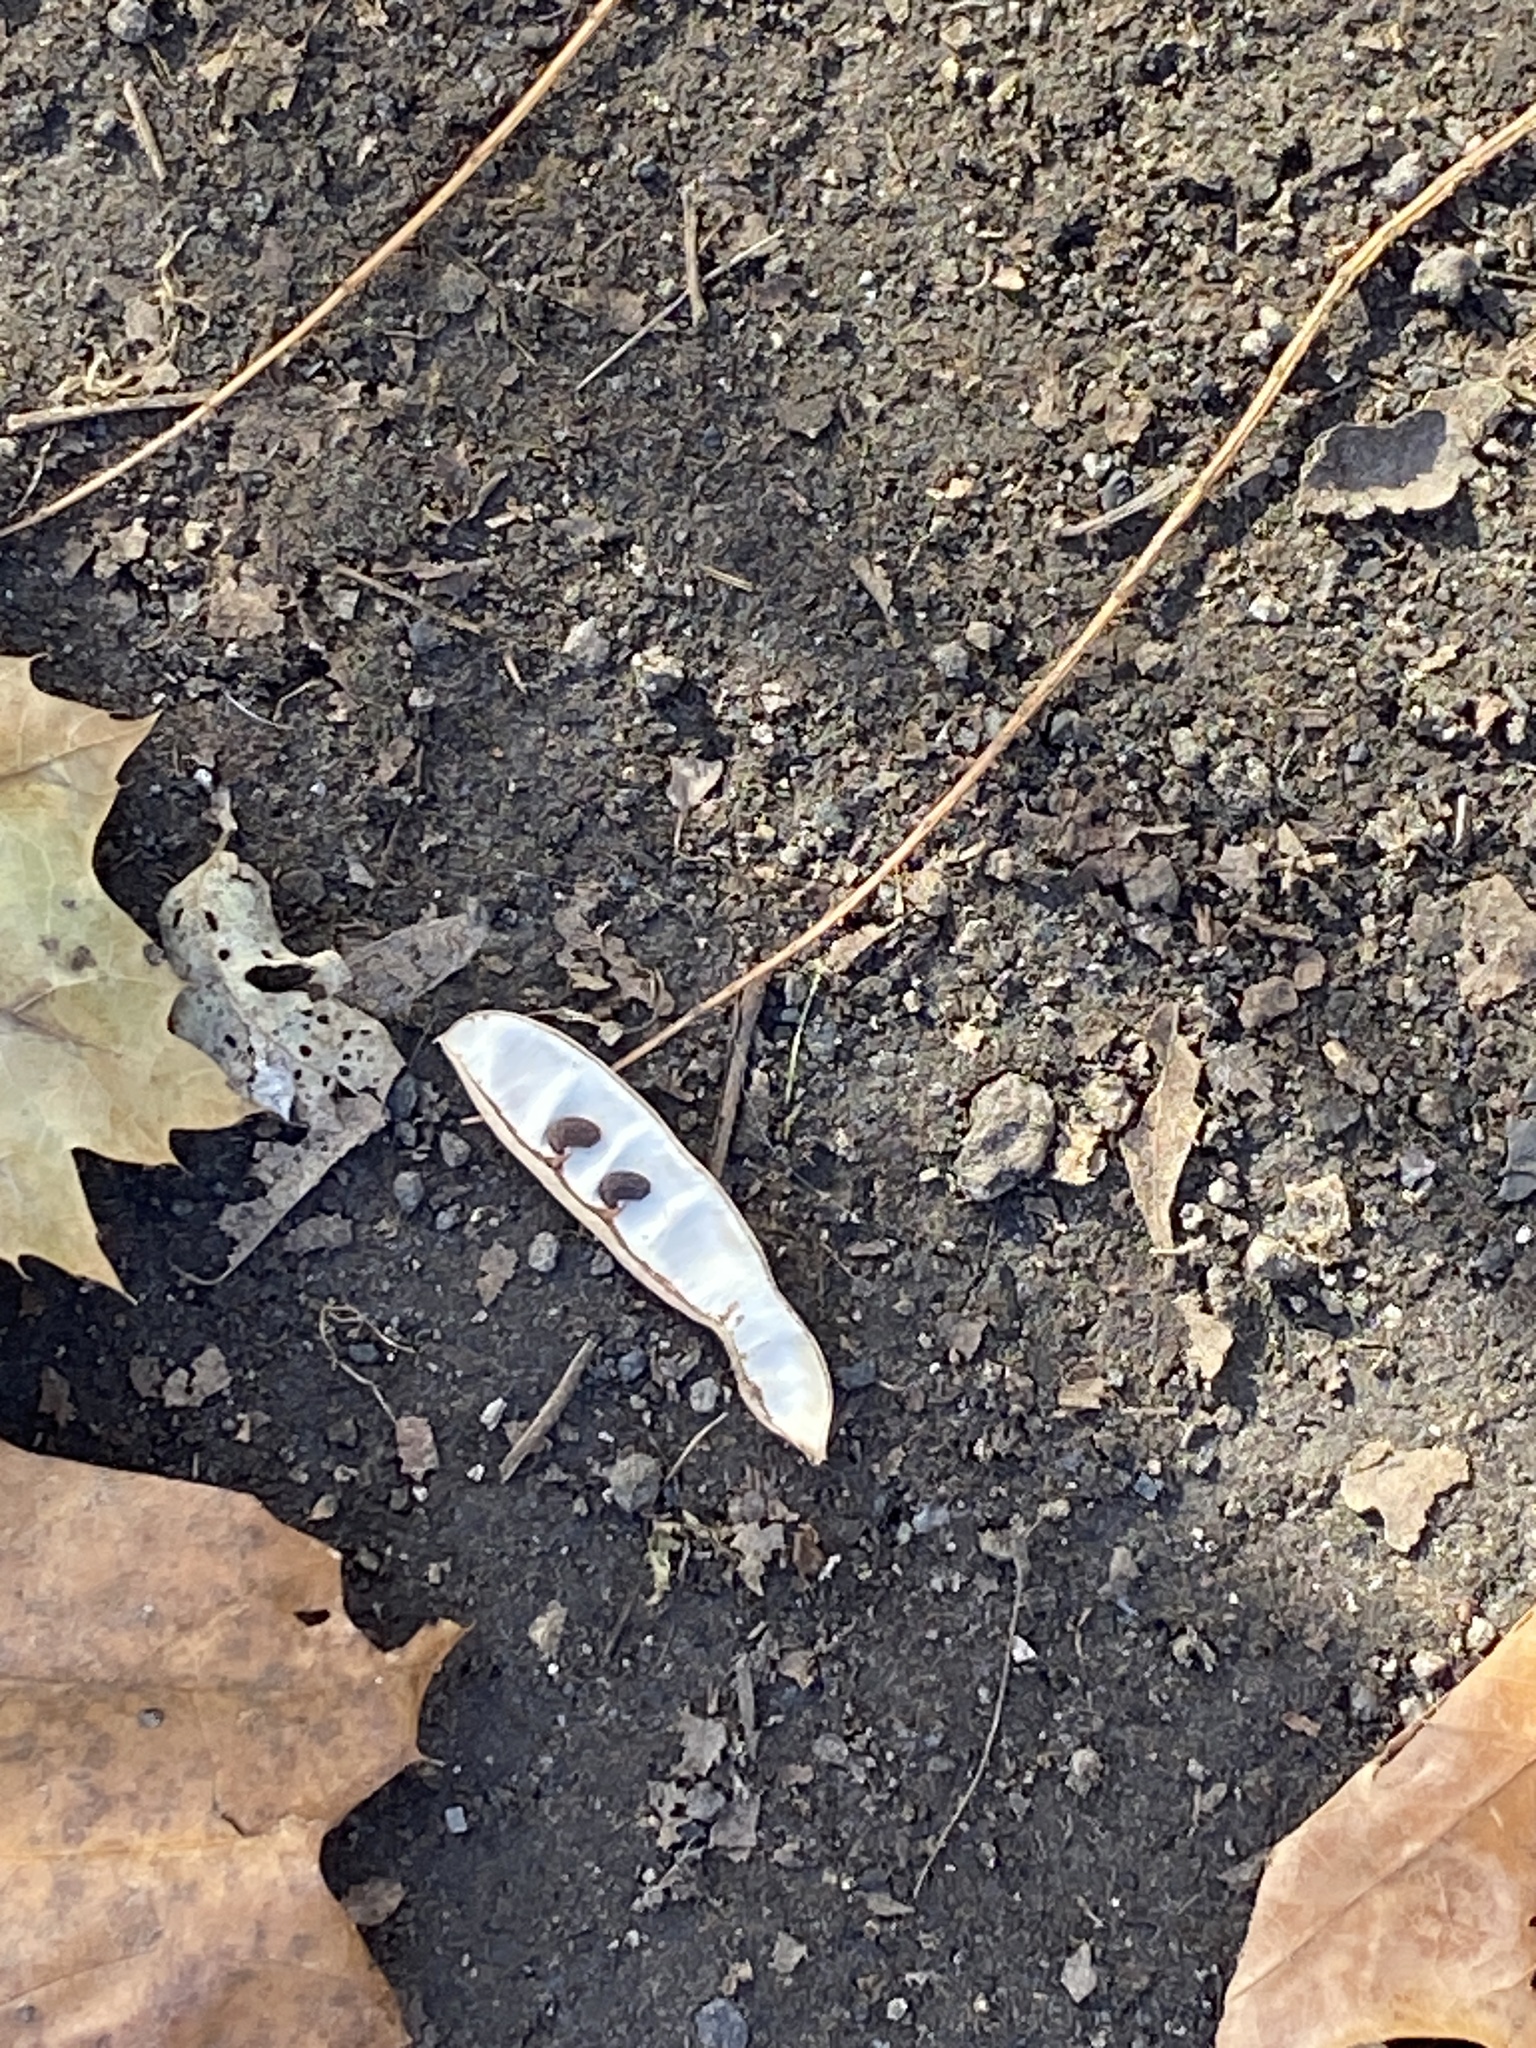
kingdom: Plantae
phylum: Tracheophyta
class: Magnoliopsida
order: Fabales
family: Fabaceae
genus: Robinia
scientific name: Robinia pseudoacacia
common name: Black locust
